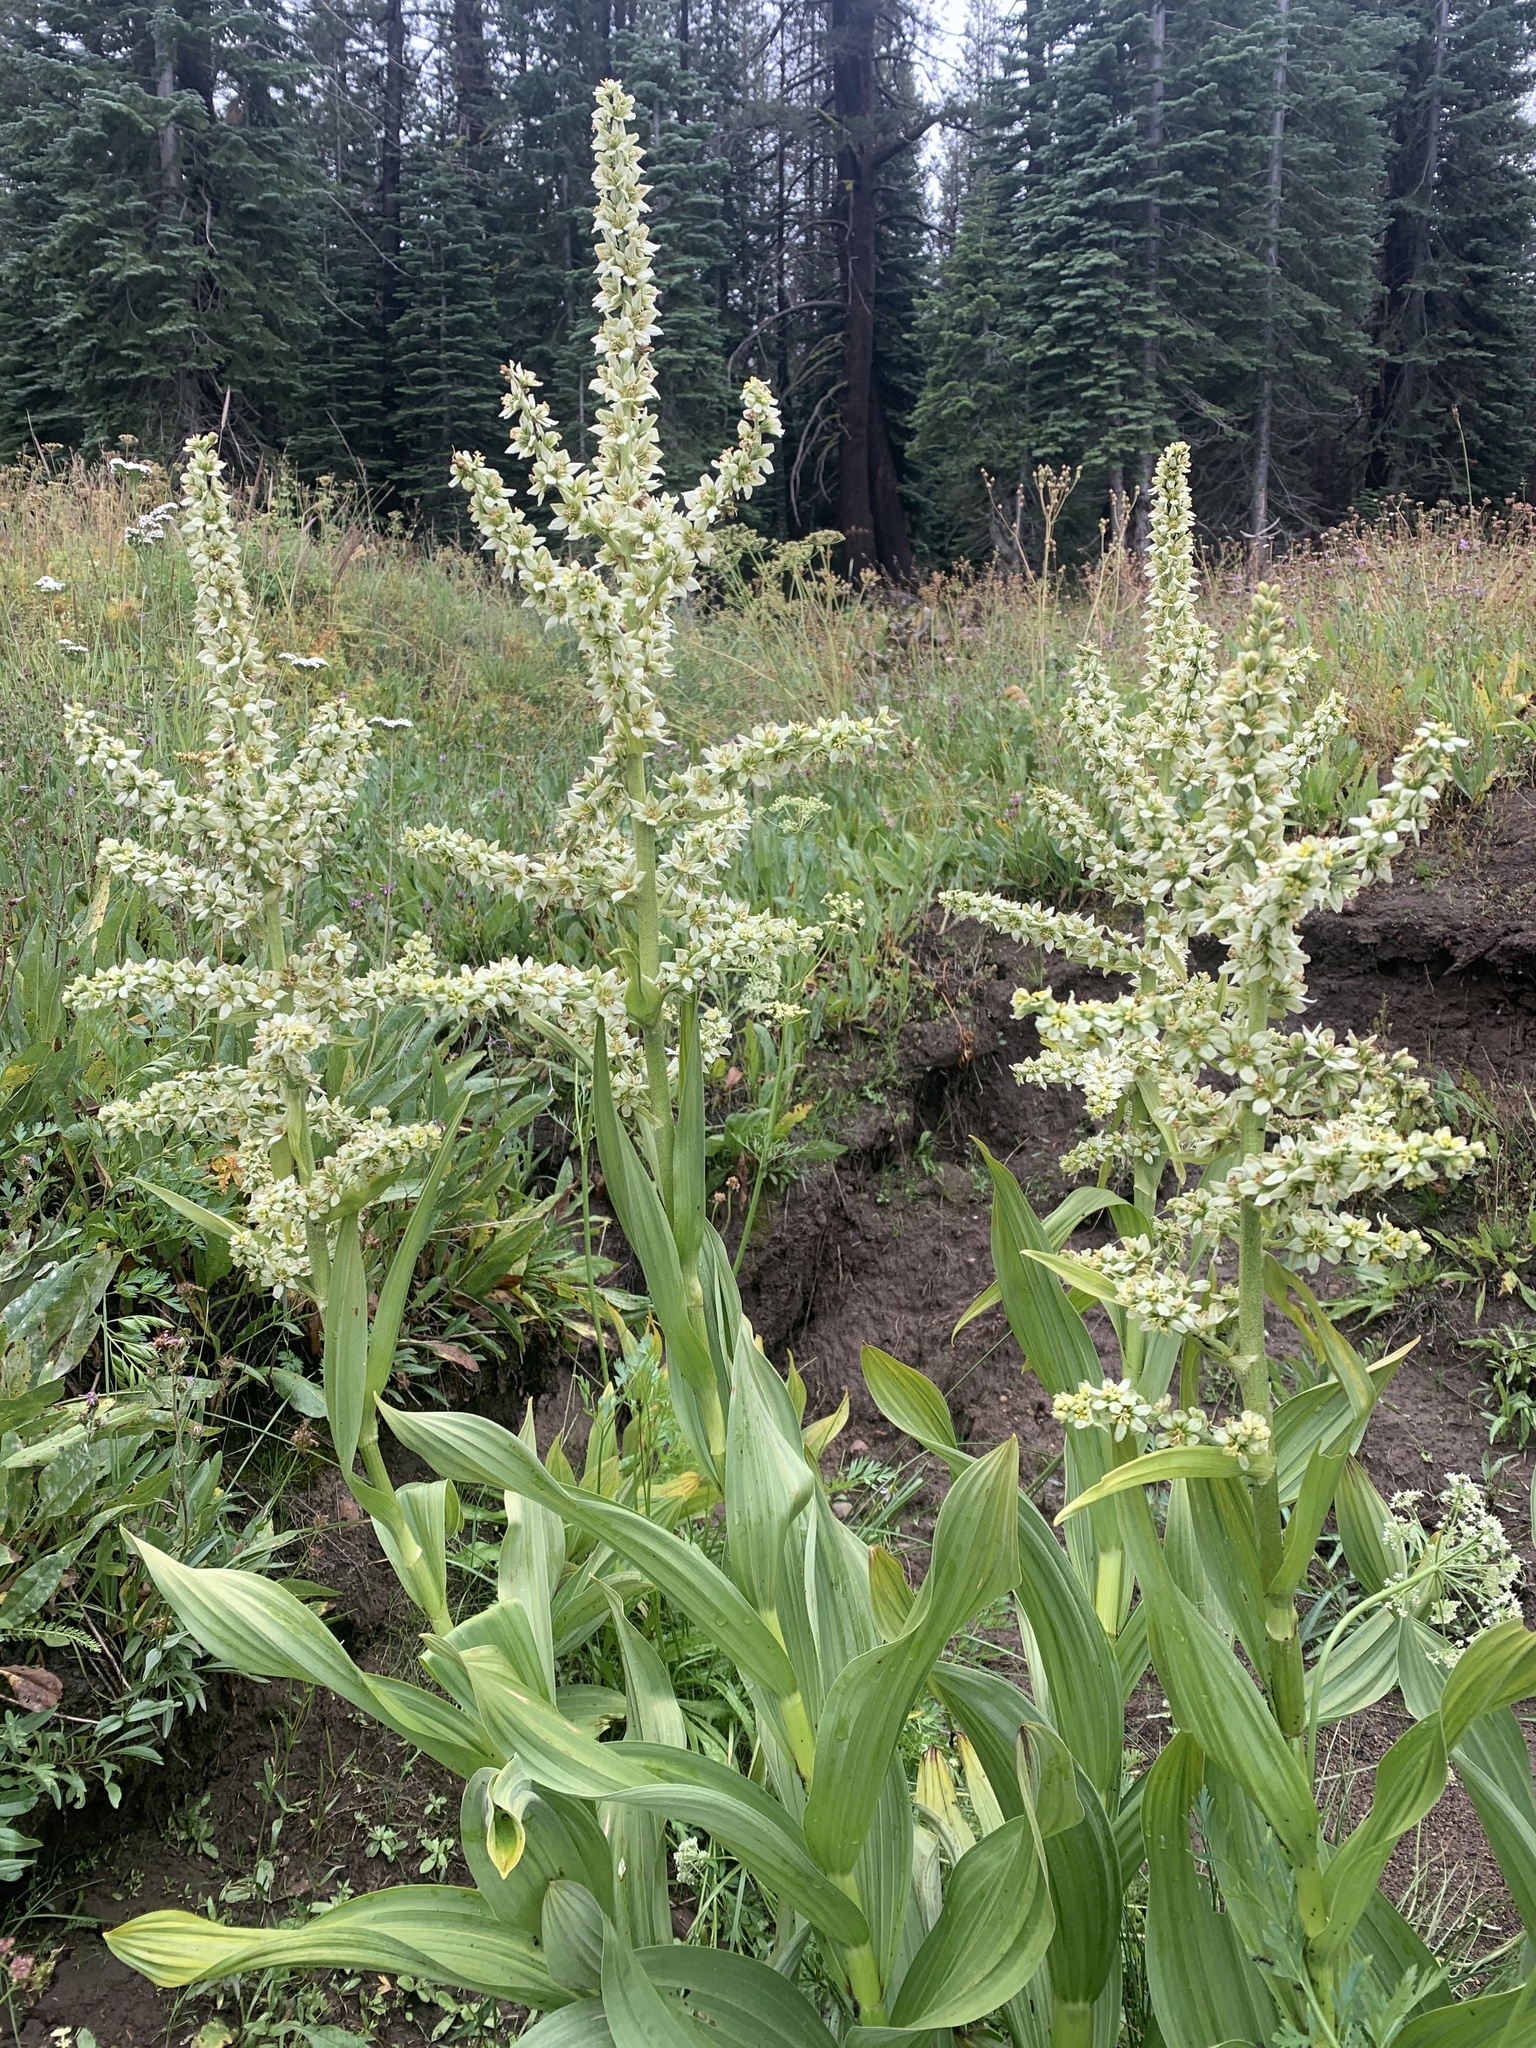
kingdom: Plantae
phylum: Tracheophyta
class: Liliopsida
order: Liliales
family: Melanthiaceae
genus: Veratrum
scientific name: Veratrum californicum
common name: California veratrum
